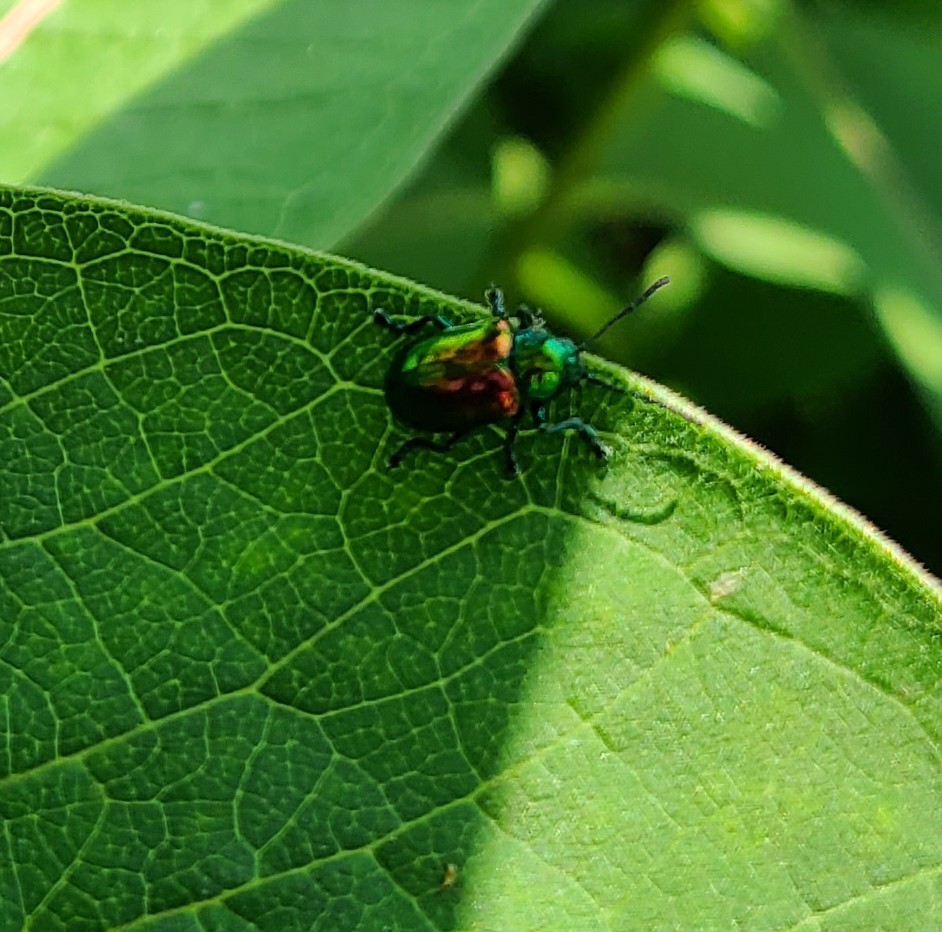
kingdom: Animalia
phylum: Arthropoda
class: Insecta
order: Coleoptera
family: Chrysomelidae
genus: Chrysochus
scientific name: Chrysochus auratus
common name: Dogbane leaf beetle
